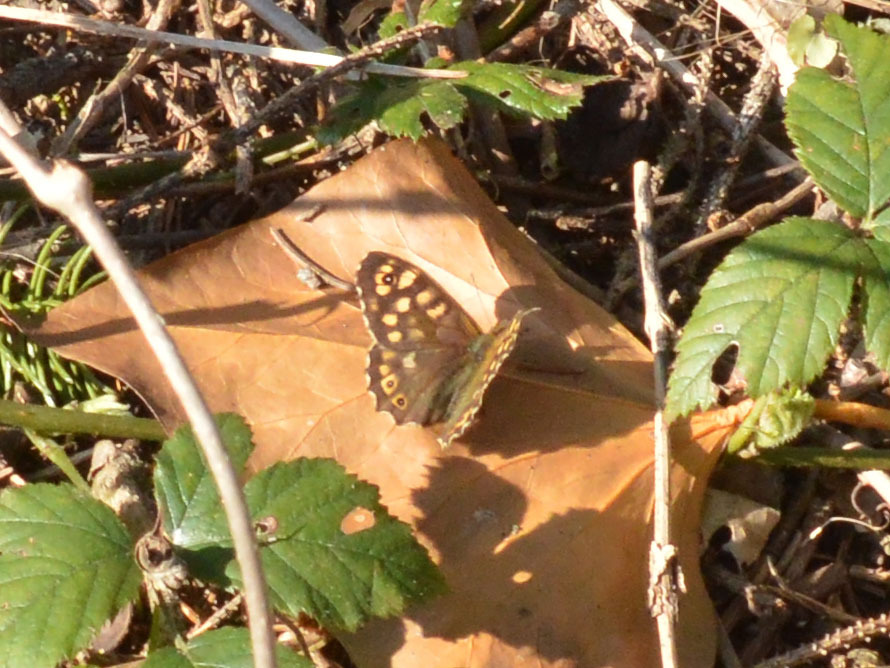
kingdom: Animalia
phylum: Arthropoda
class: Insecta
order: Lepidoptera
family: Nymphalidae
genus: Pararge
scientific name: Pararge aegeria
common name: Speckled wood
